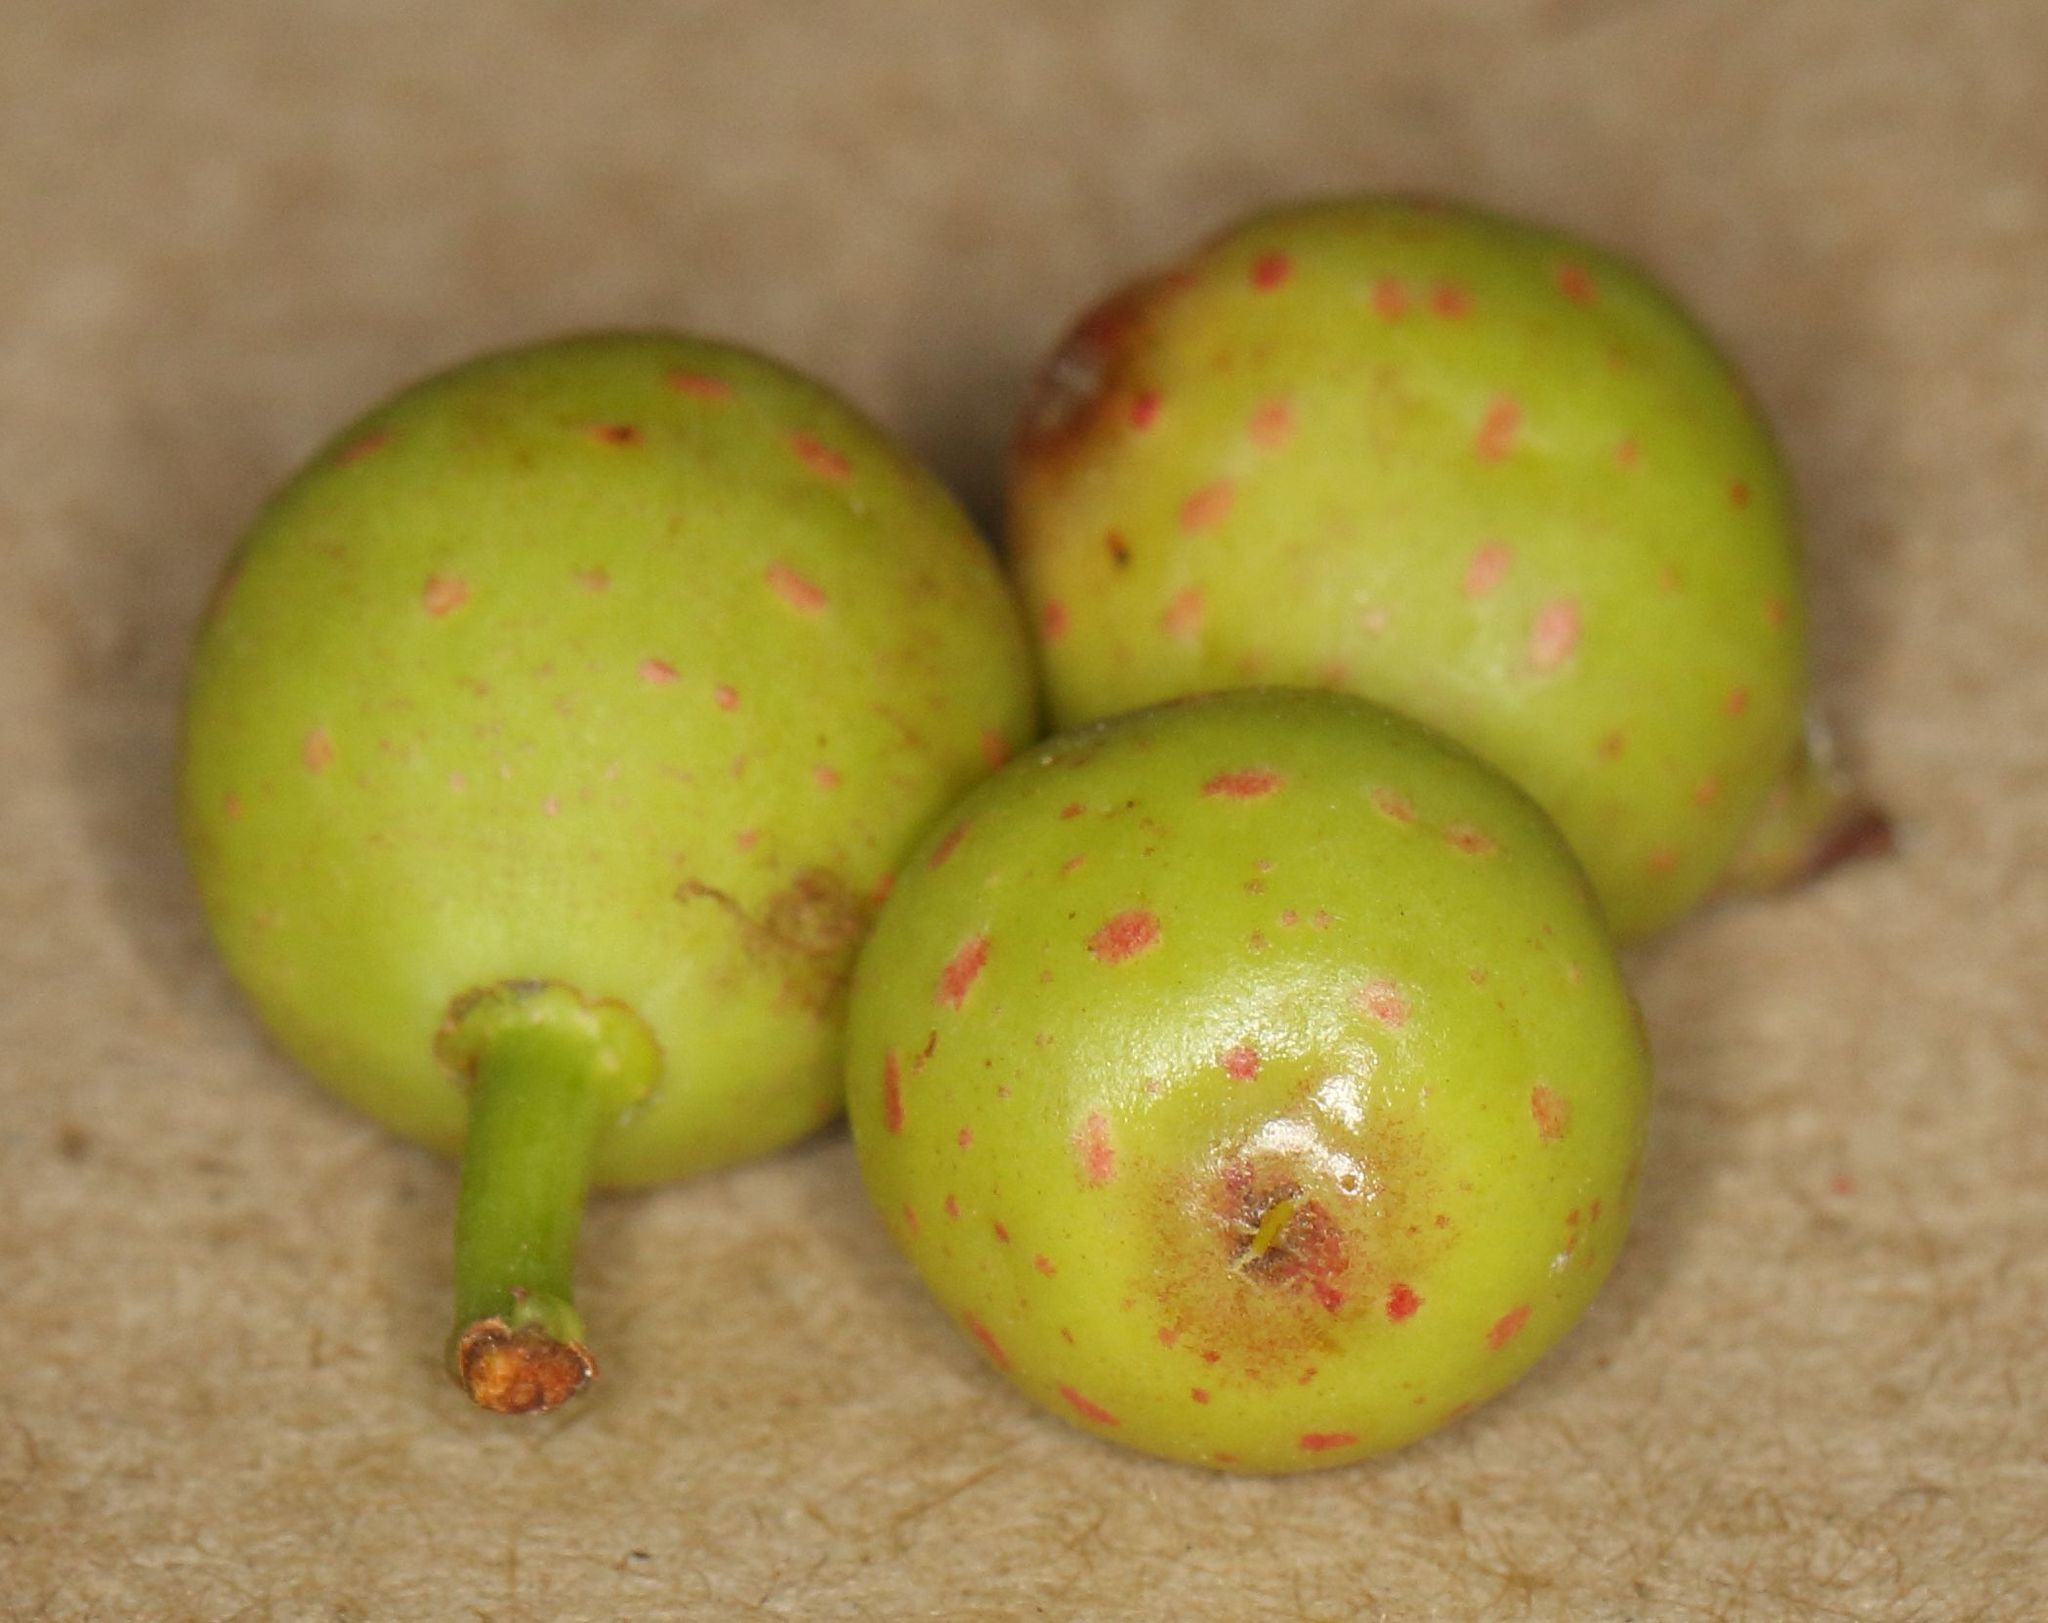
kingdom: Plantae
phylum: Tracheophyta
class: Magnoliopsida
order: Rosales
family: Moraceae
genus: Ficus
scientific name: Ficus natalensis
